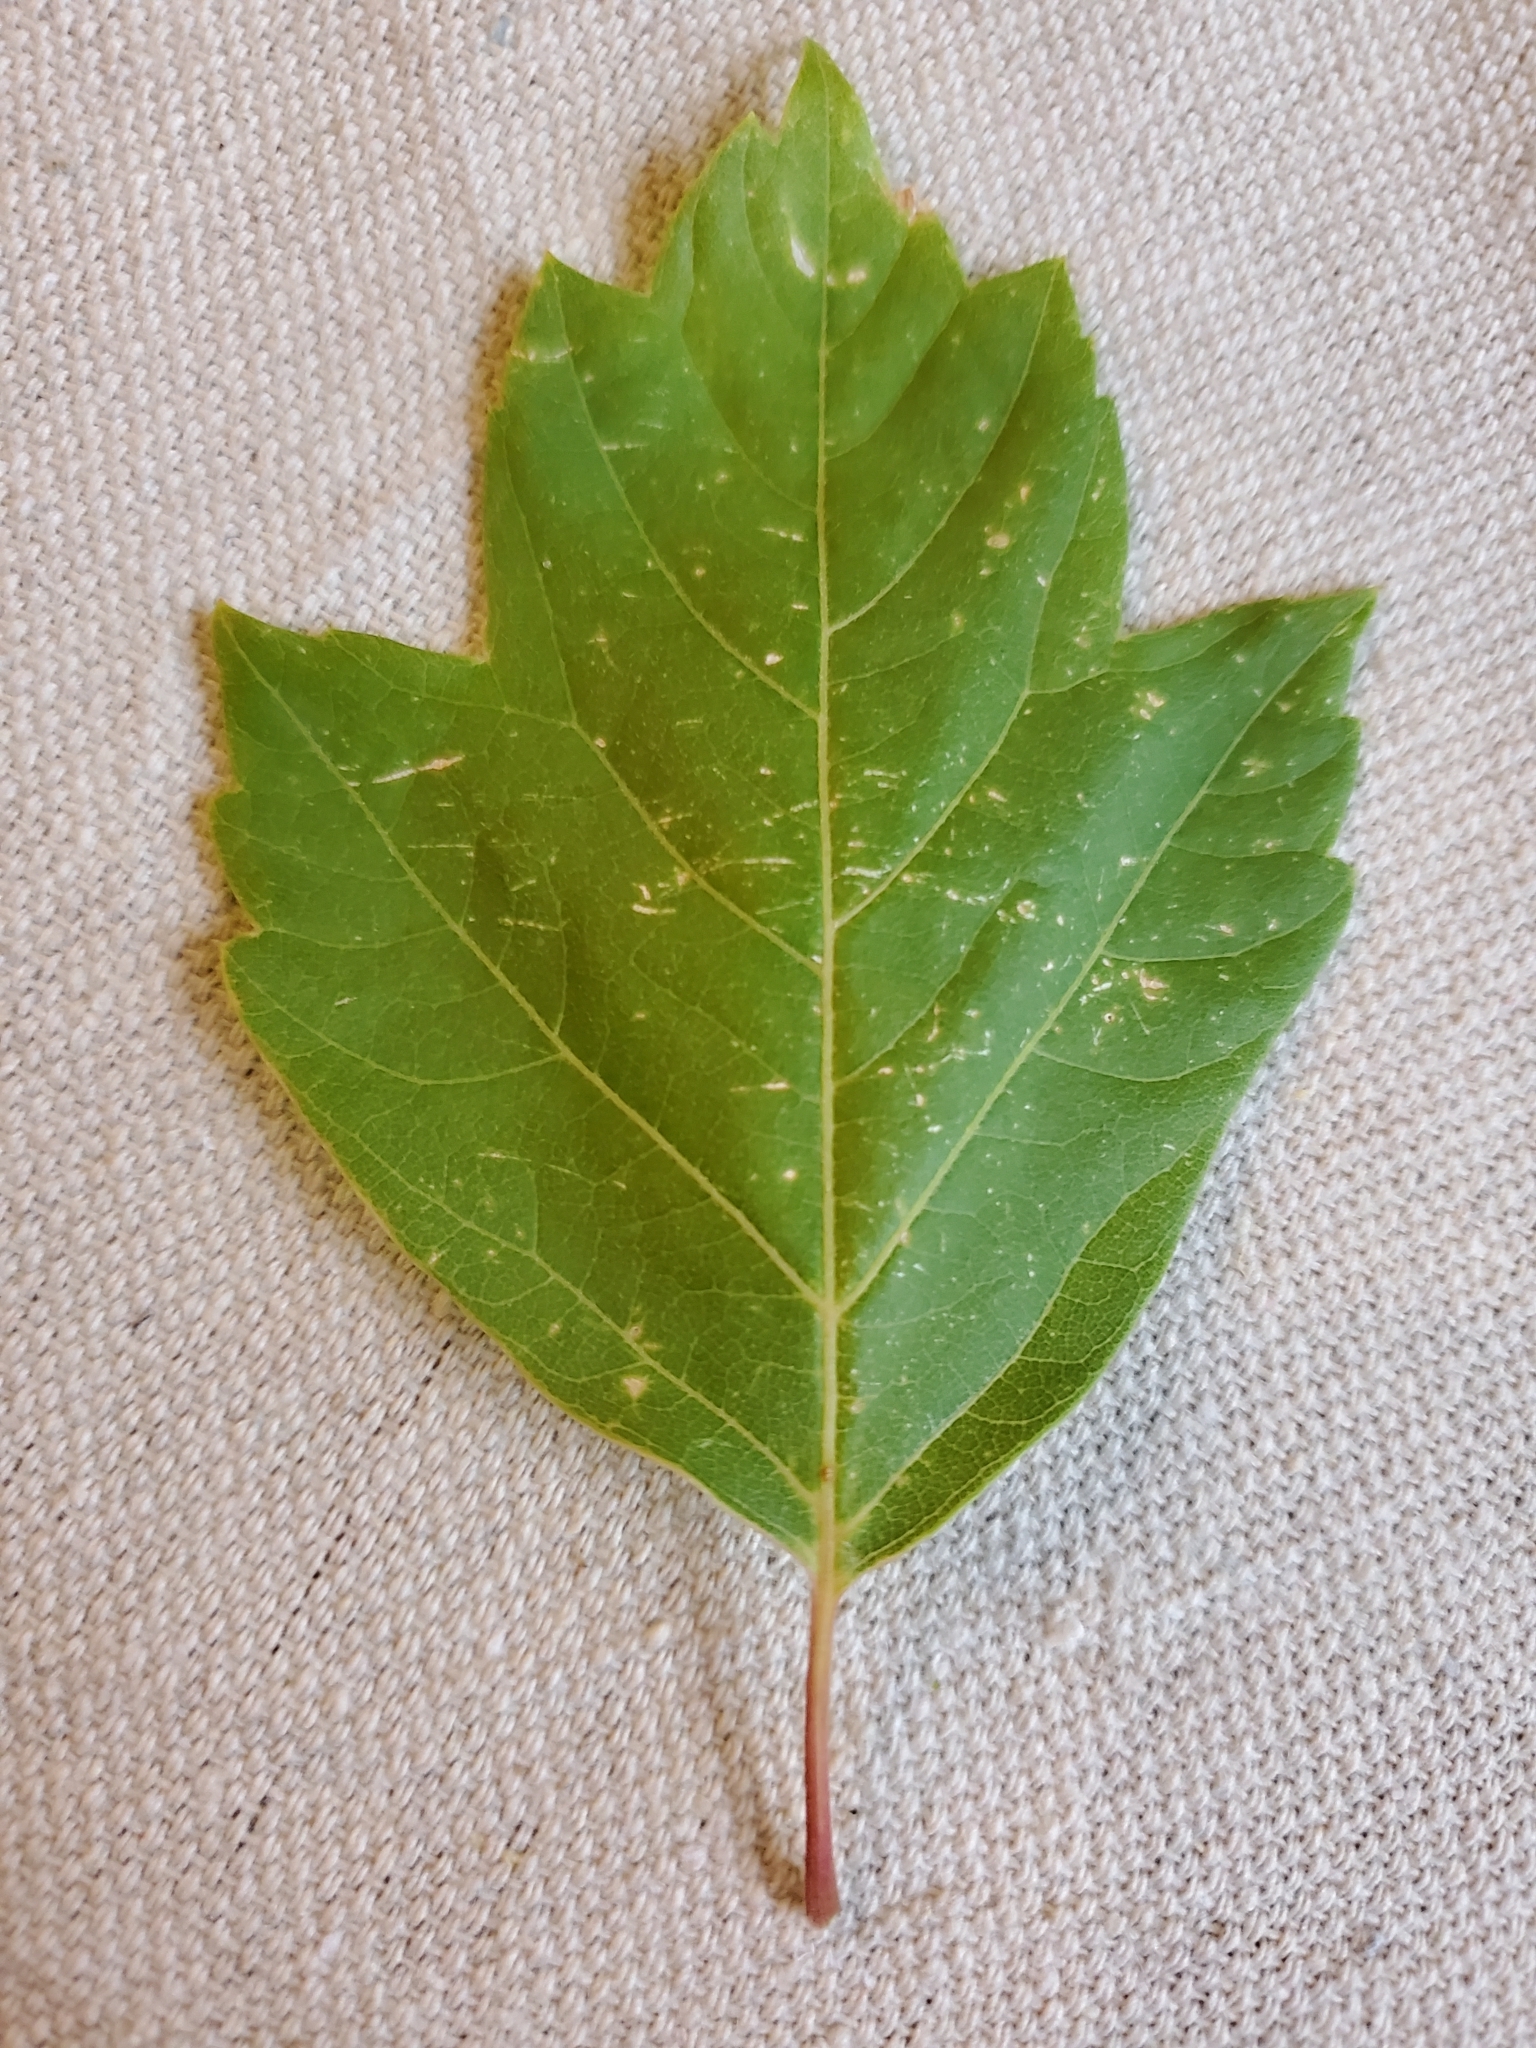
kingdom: Plantae
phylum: Tracheophyta
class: Magnoliopsida
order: Sapindales
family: Sapindaceae
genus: Acer
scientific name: Acer negundo
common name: Ashleaf maple
